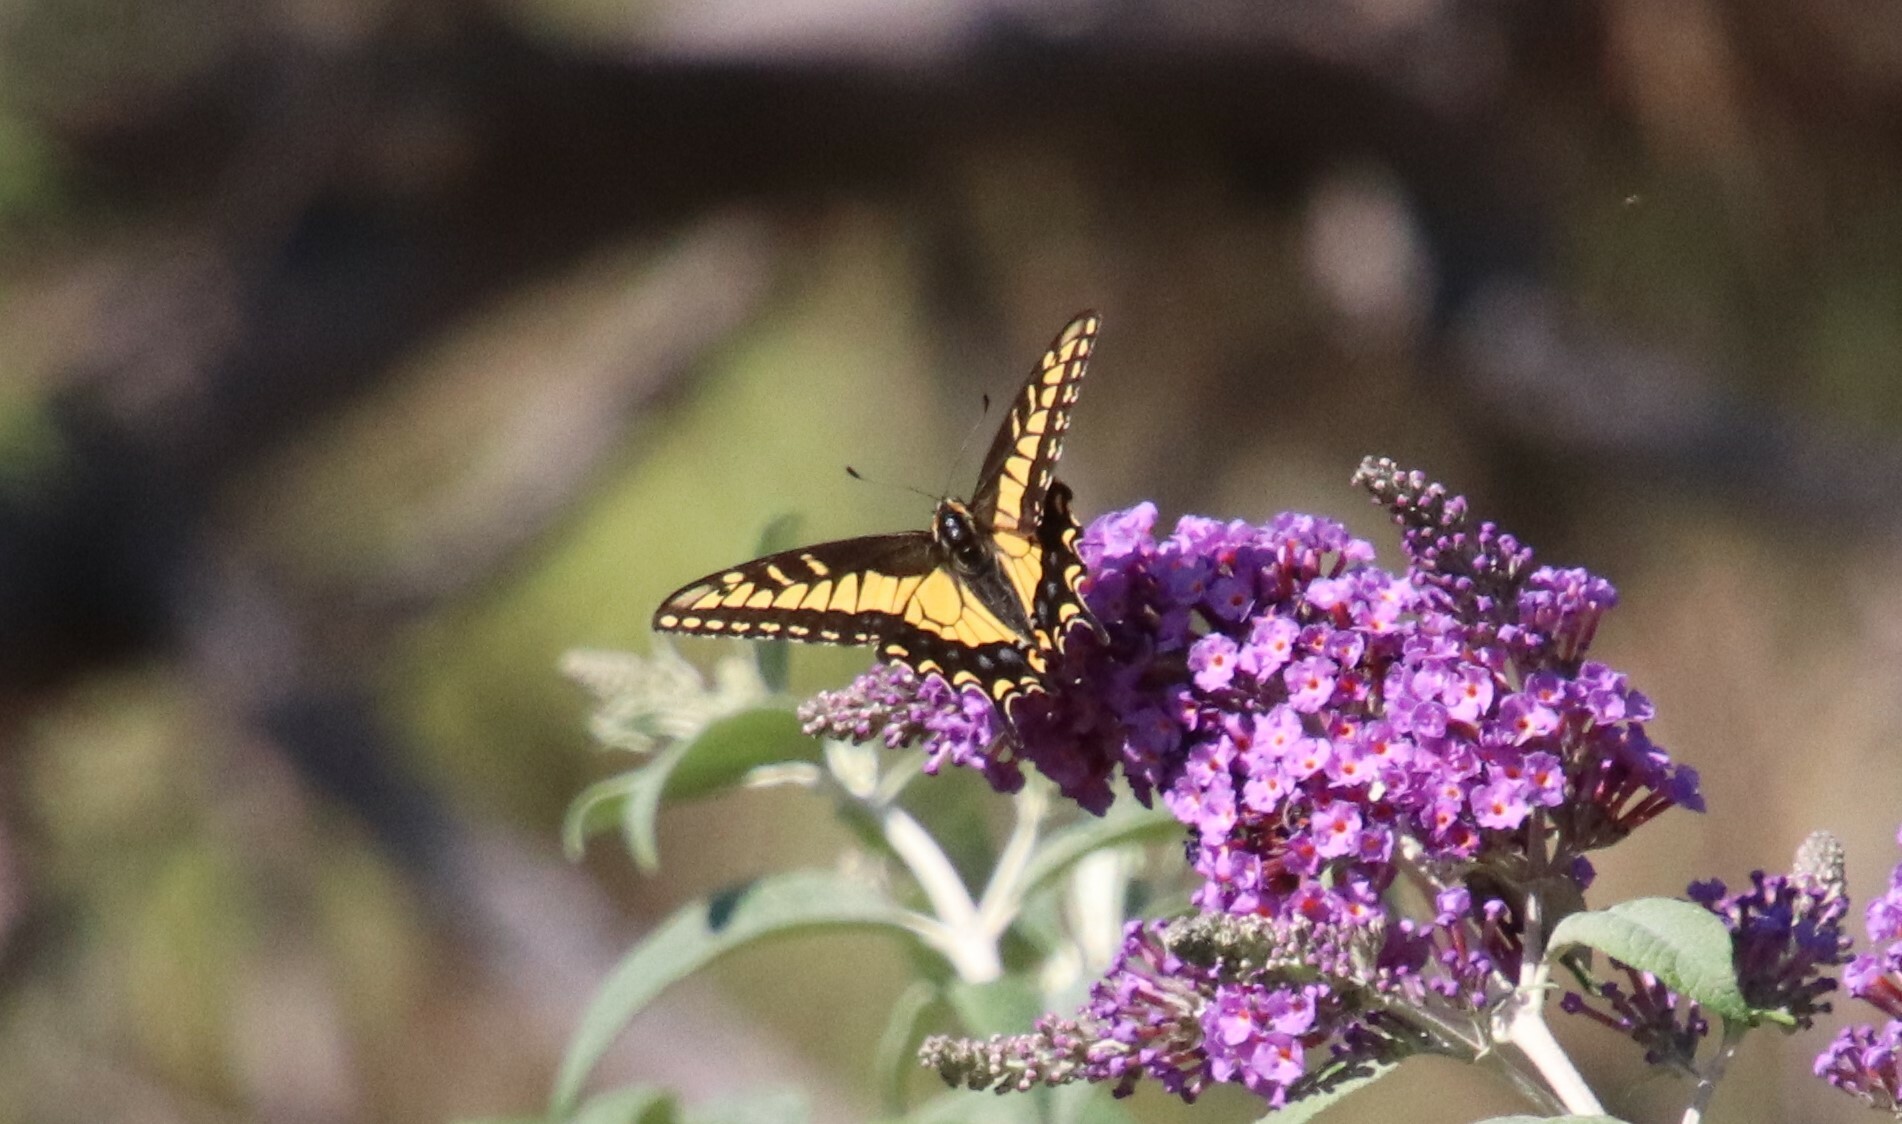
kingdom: Animalia
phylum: Arthropoda
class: Insecta
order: Lepidoptera
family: Papilionidae
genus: Papilio
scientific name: Papilio zelicaon
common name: Anise swallowtail
